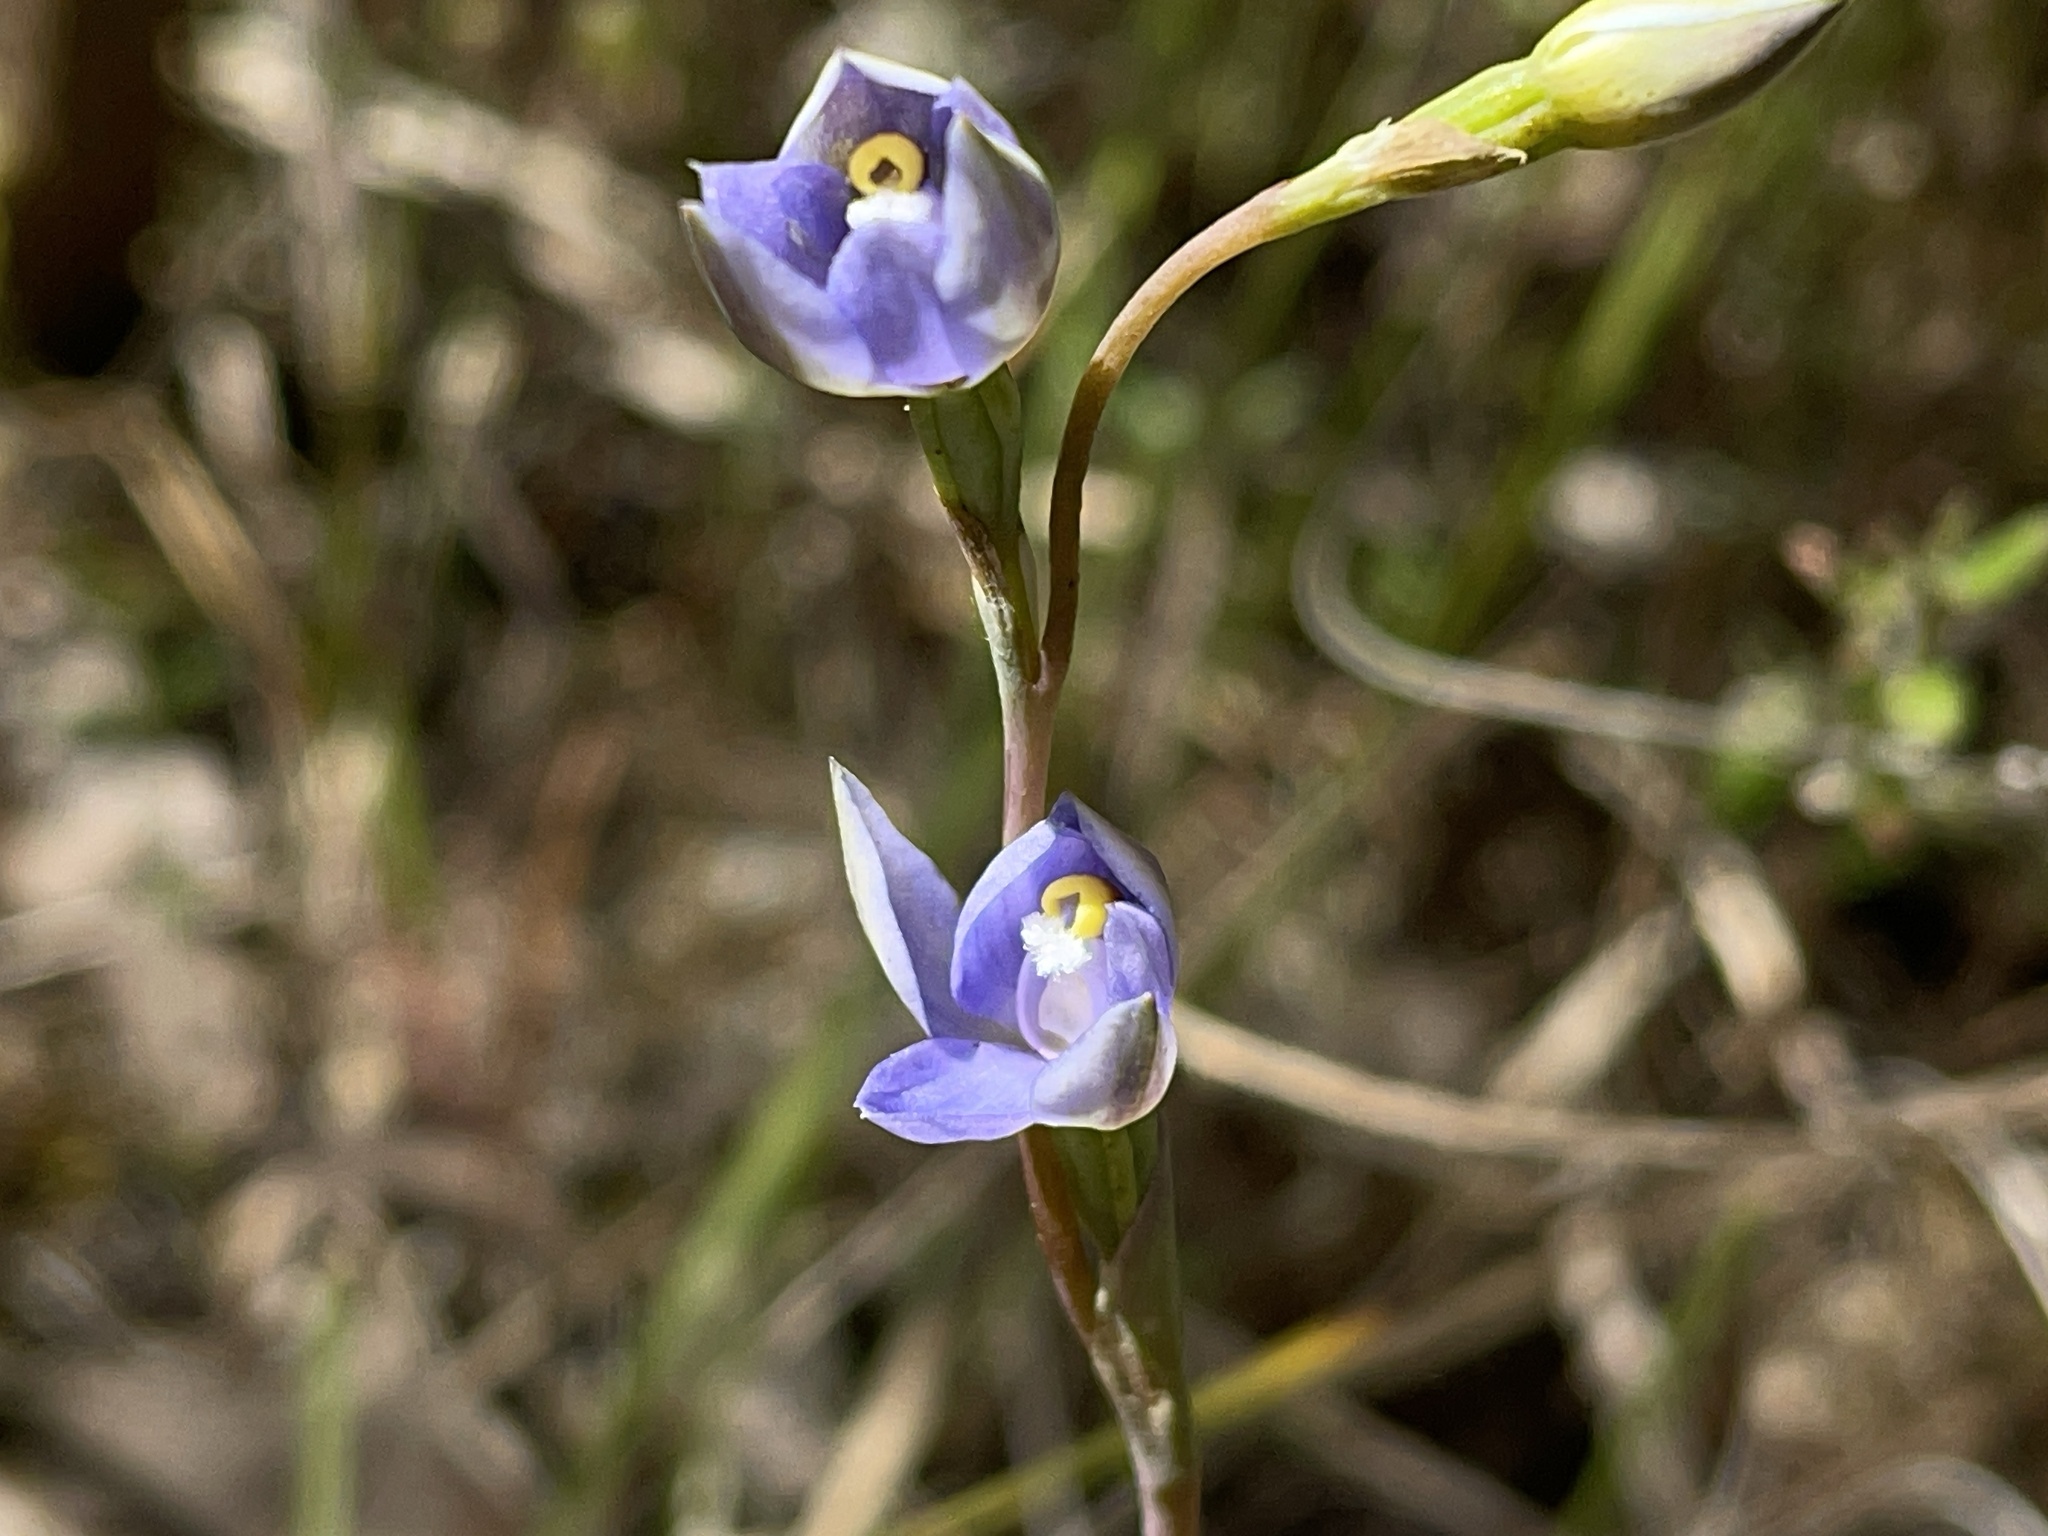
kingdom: Plantae
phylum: Tracheophyta
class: Liliopsida
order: Asparagales
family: Orchidaceae
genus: Thelymitra
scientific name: Thelymitra arenaria
